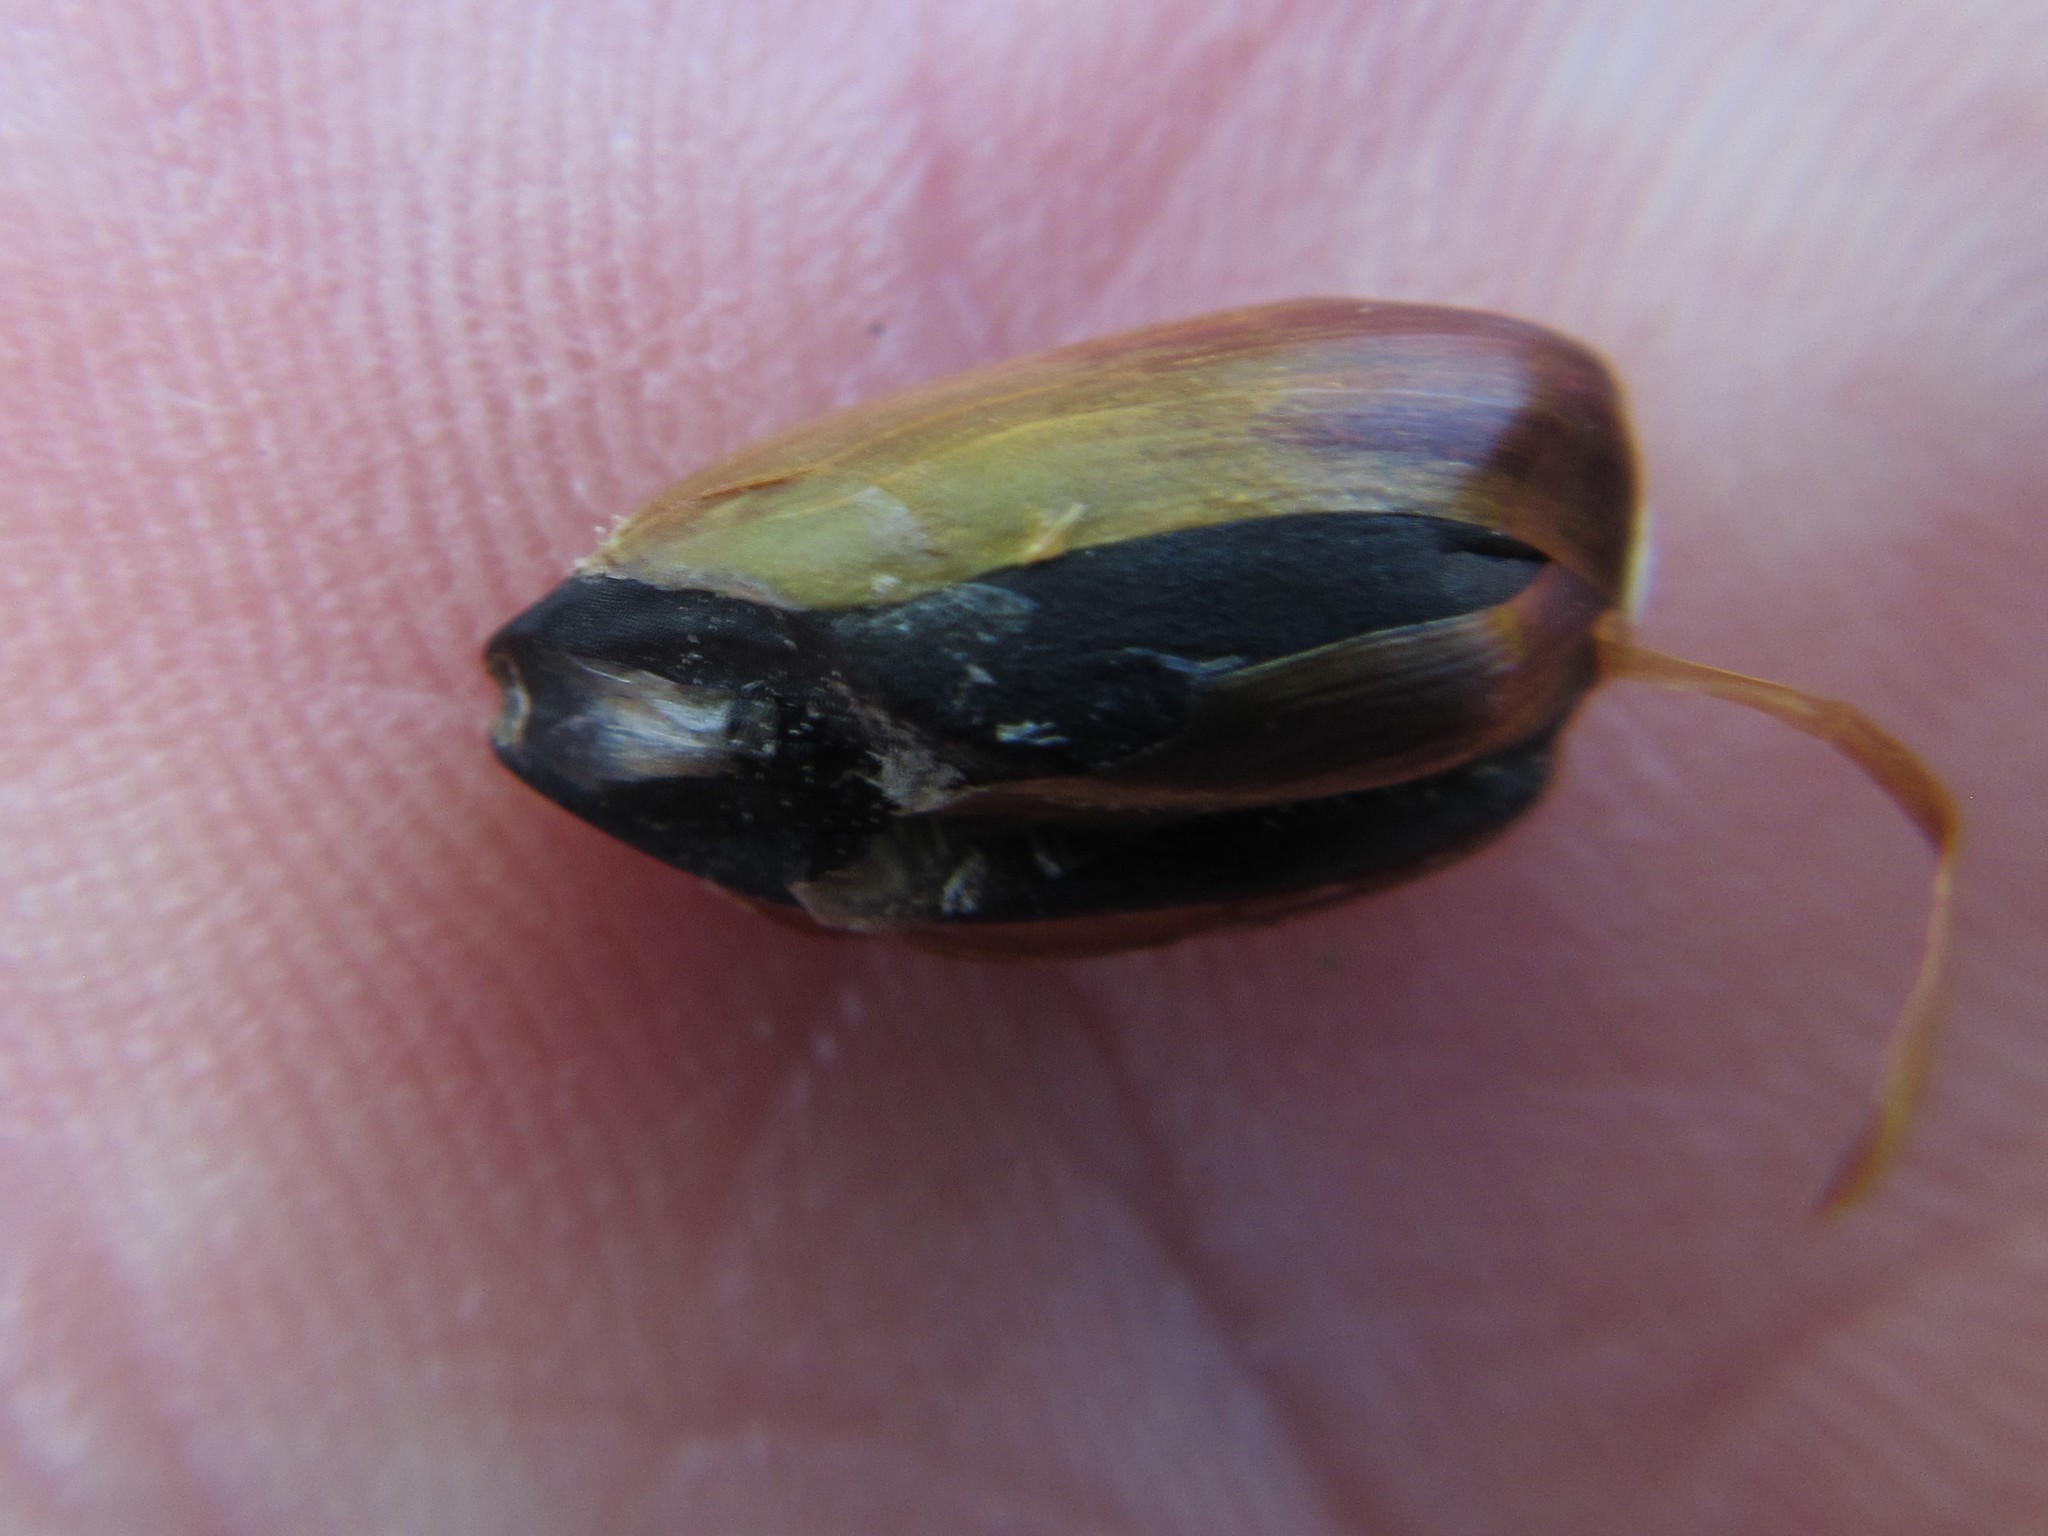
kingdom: Plantae
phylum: Tracheophyta
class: Liliopsida
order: Poales
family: Restionaceae
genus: Cannomois
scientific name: Cannomois virgata
